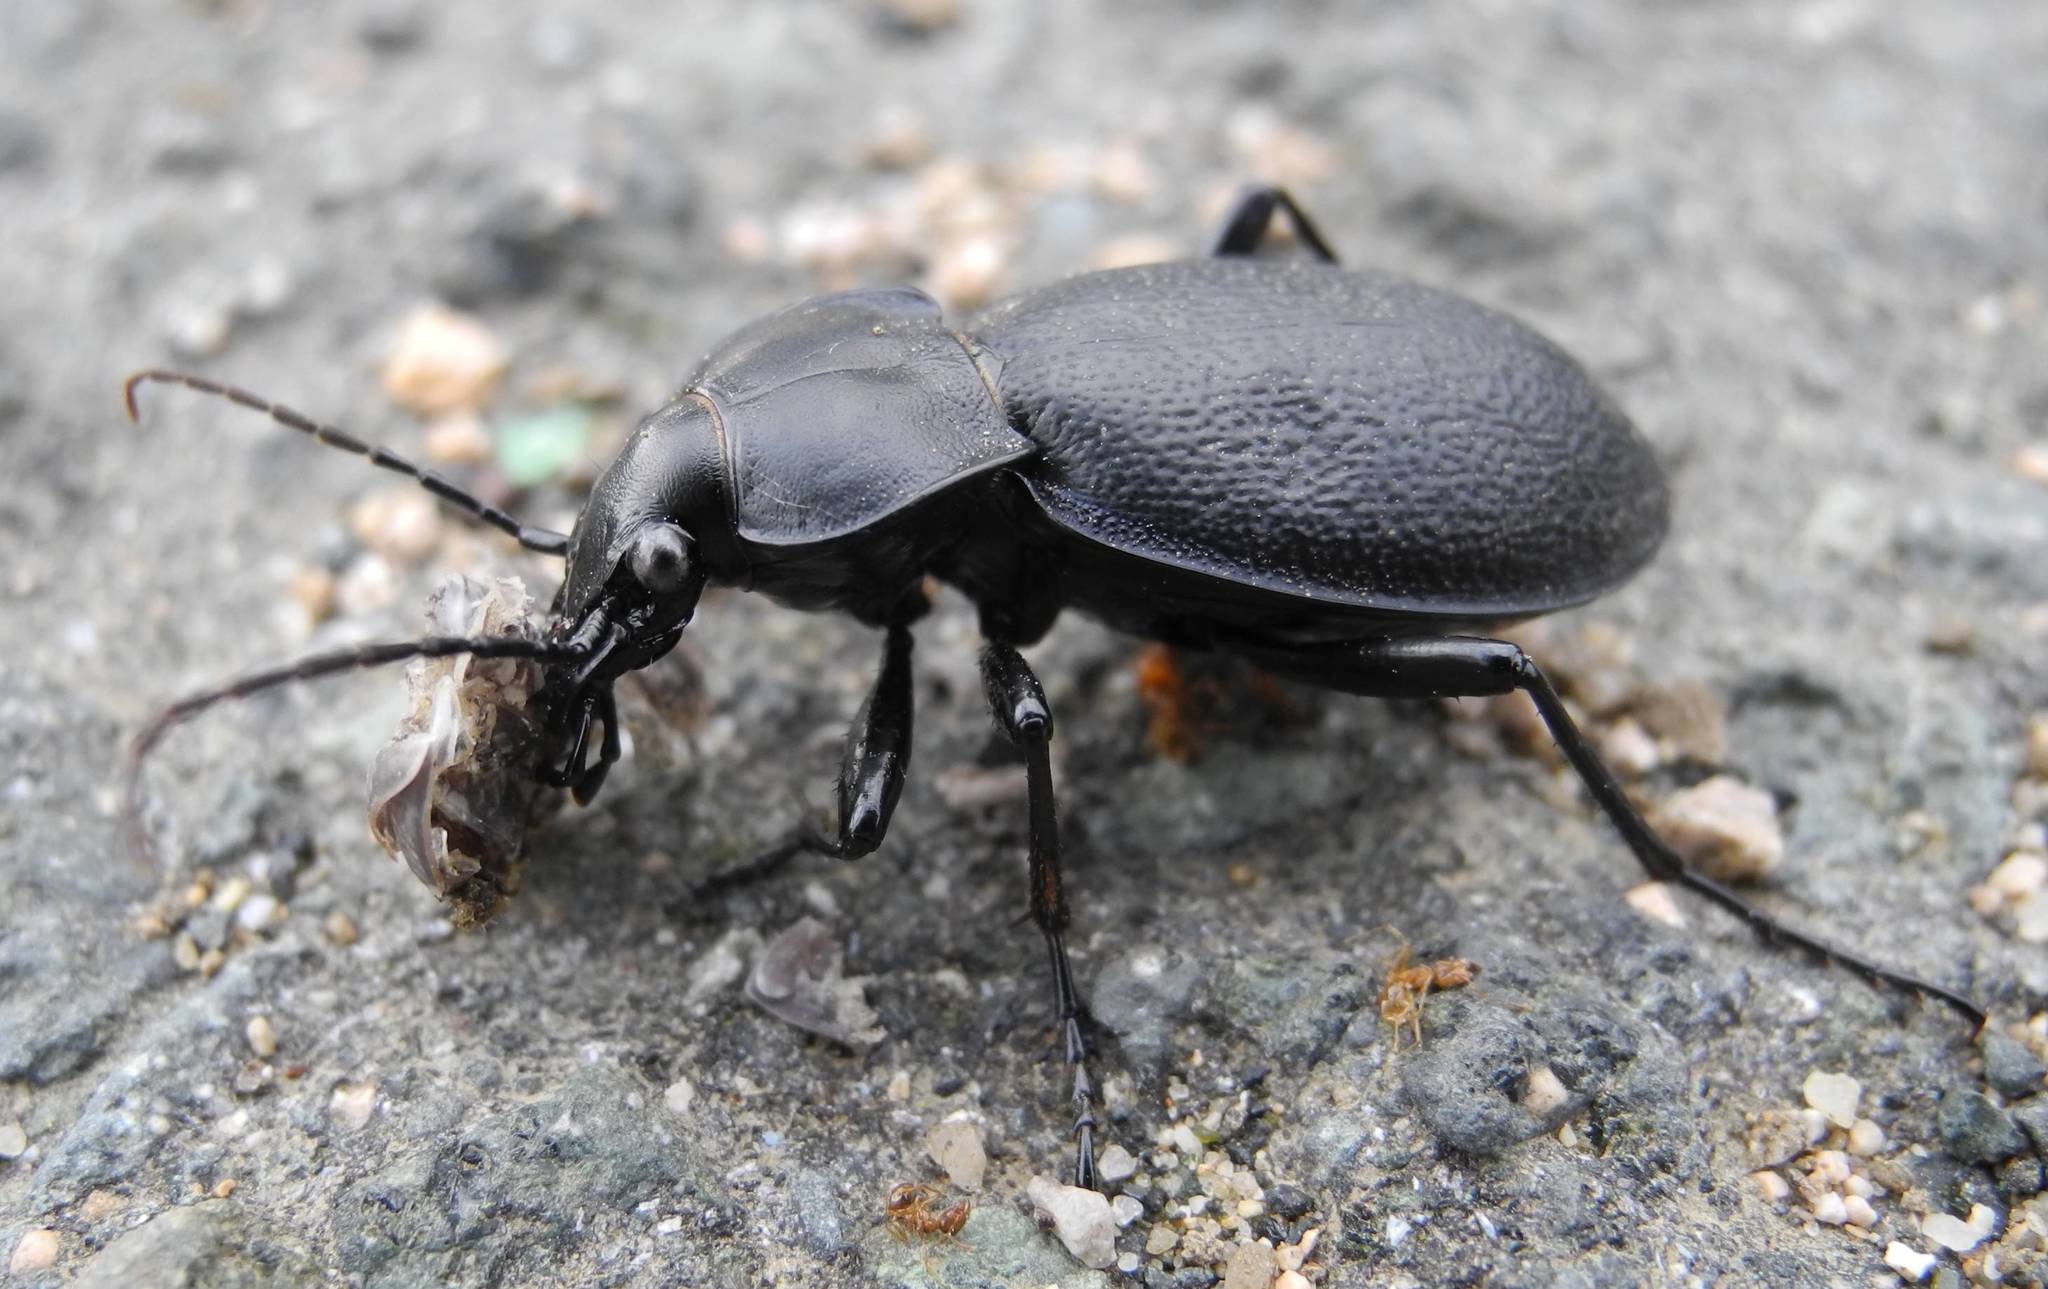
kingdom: Animalia
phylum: Arthropoda
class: Insecta
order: Coleoptera
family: Carabidae
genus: Carabus
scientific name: Carabus coriaceus
